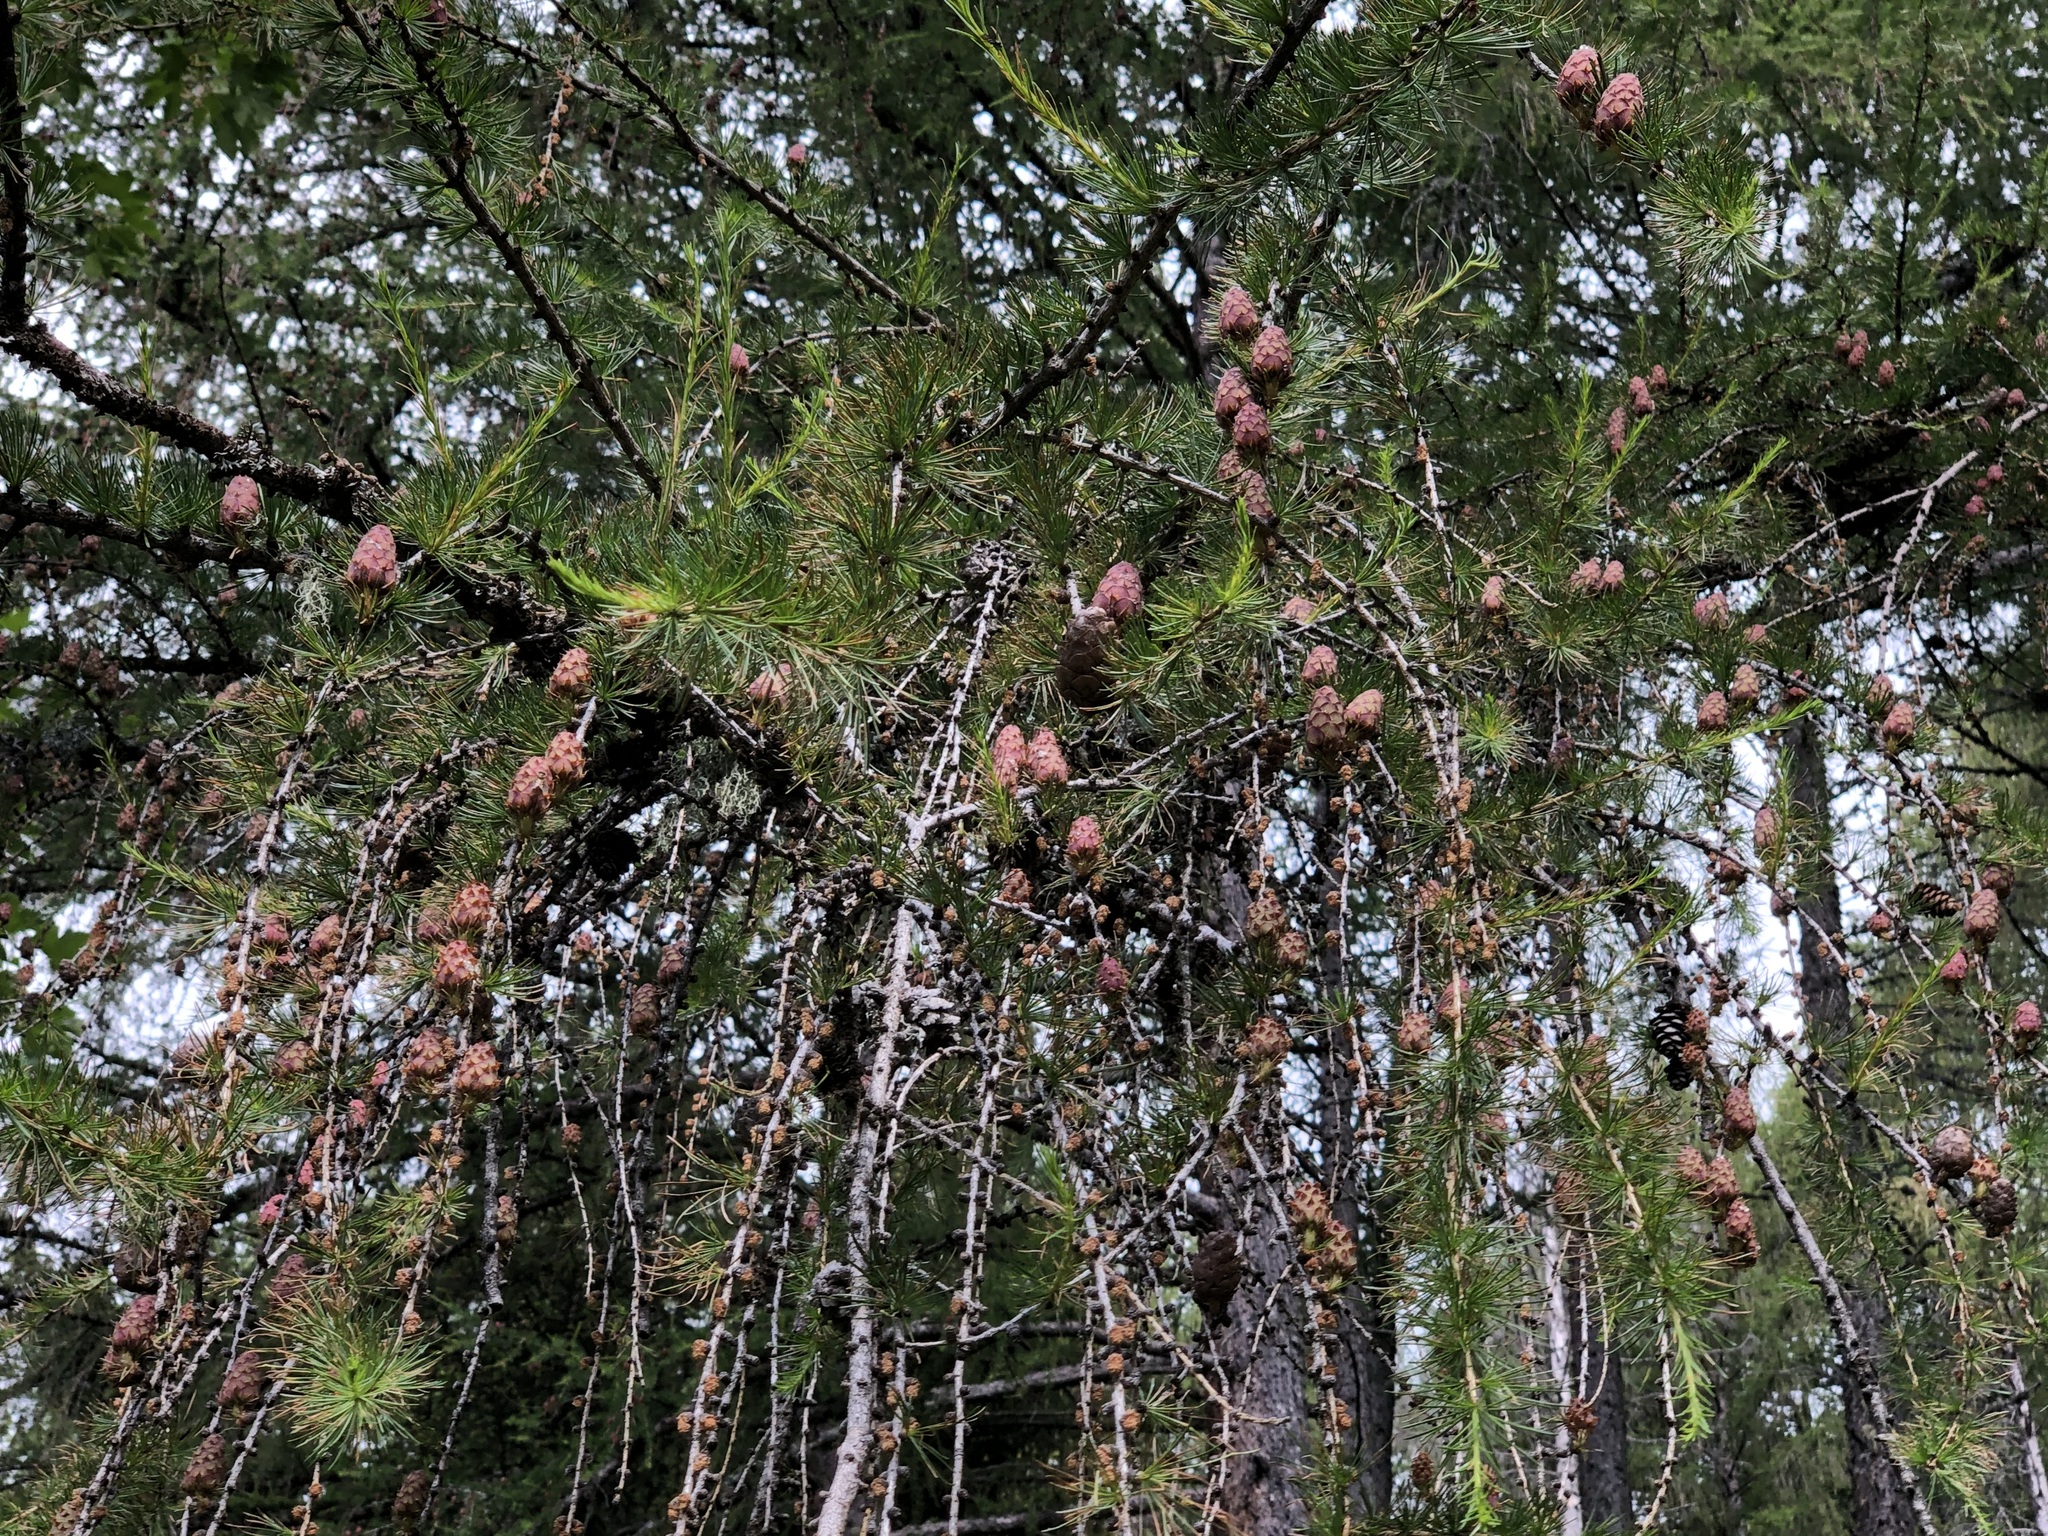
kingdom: Plantae
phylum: Tracheophyta
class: Pinopsida
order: Pinales
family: Pinaceae
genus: Larix
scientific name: Larix decidua
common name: European larch
